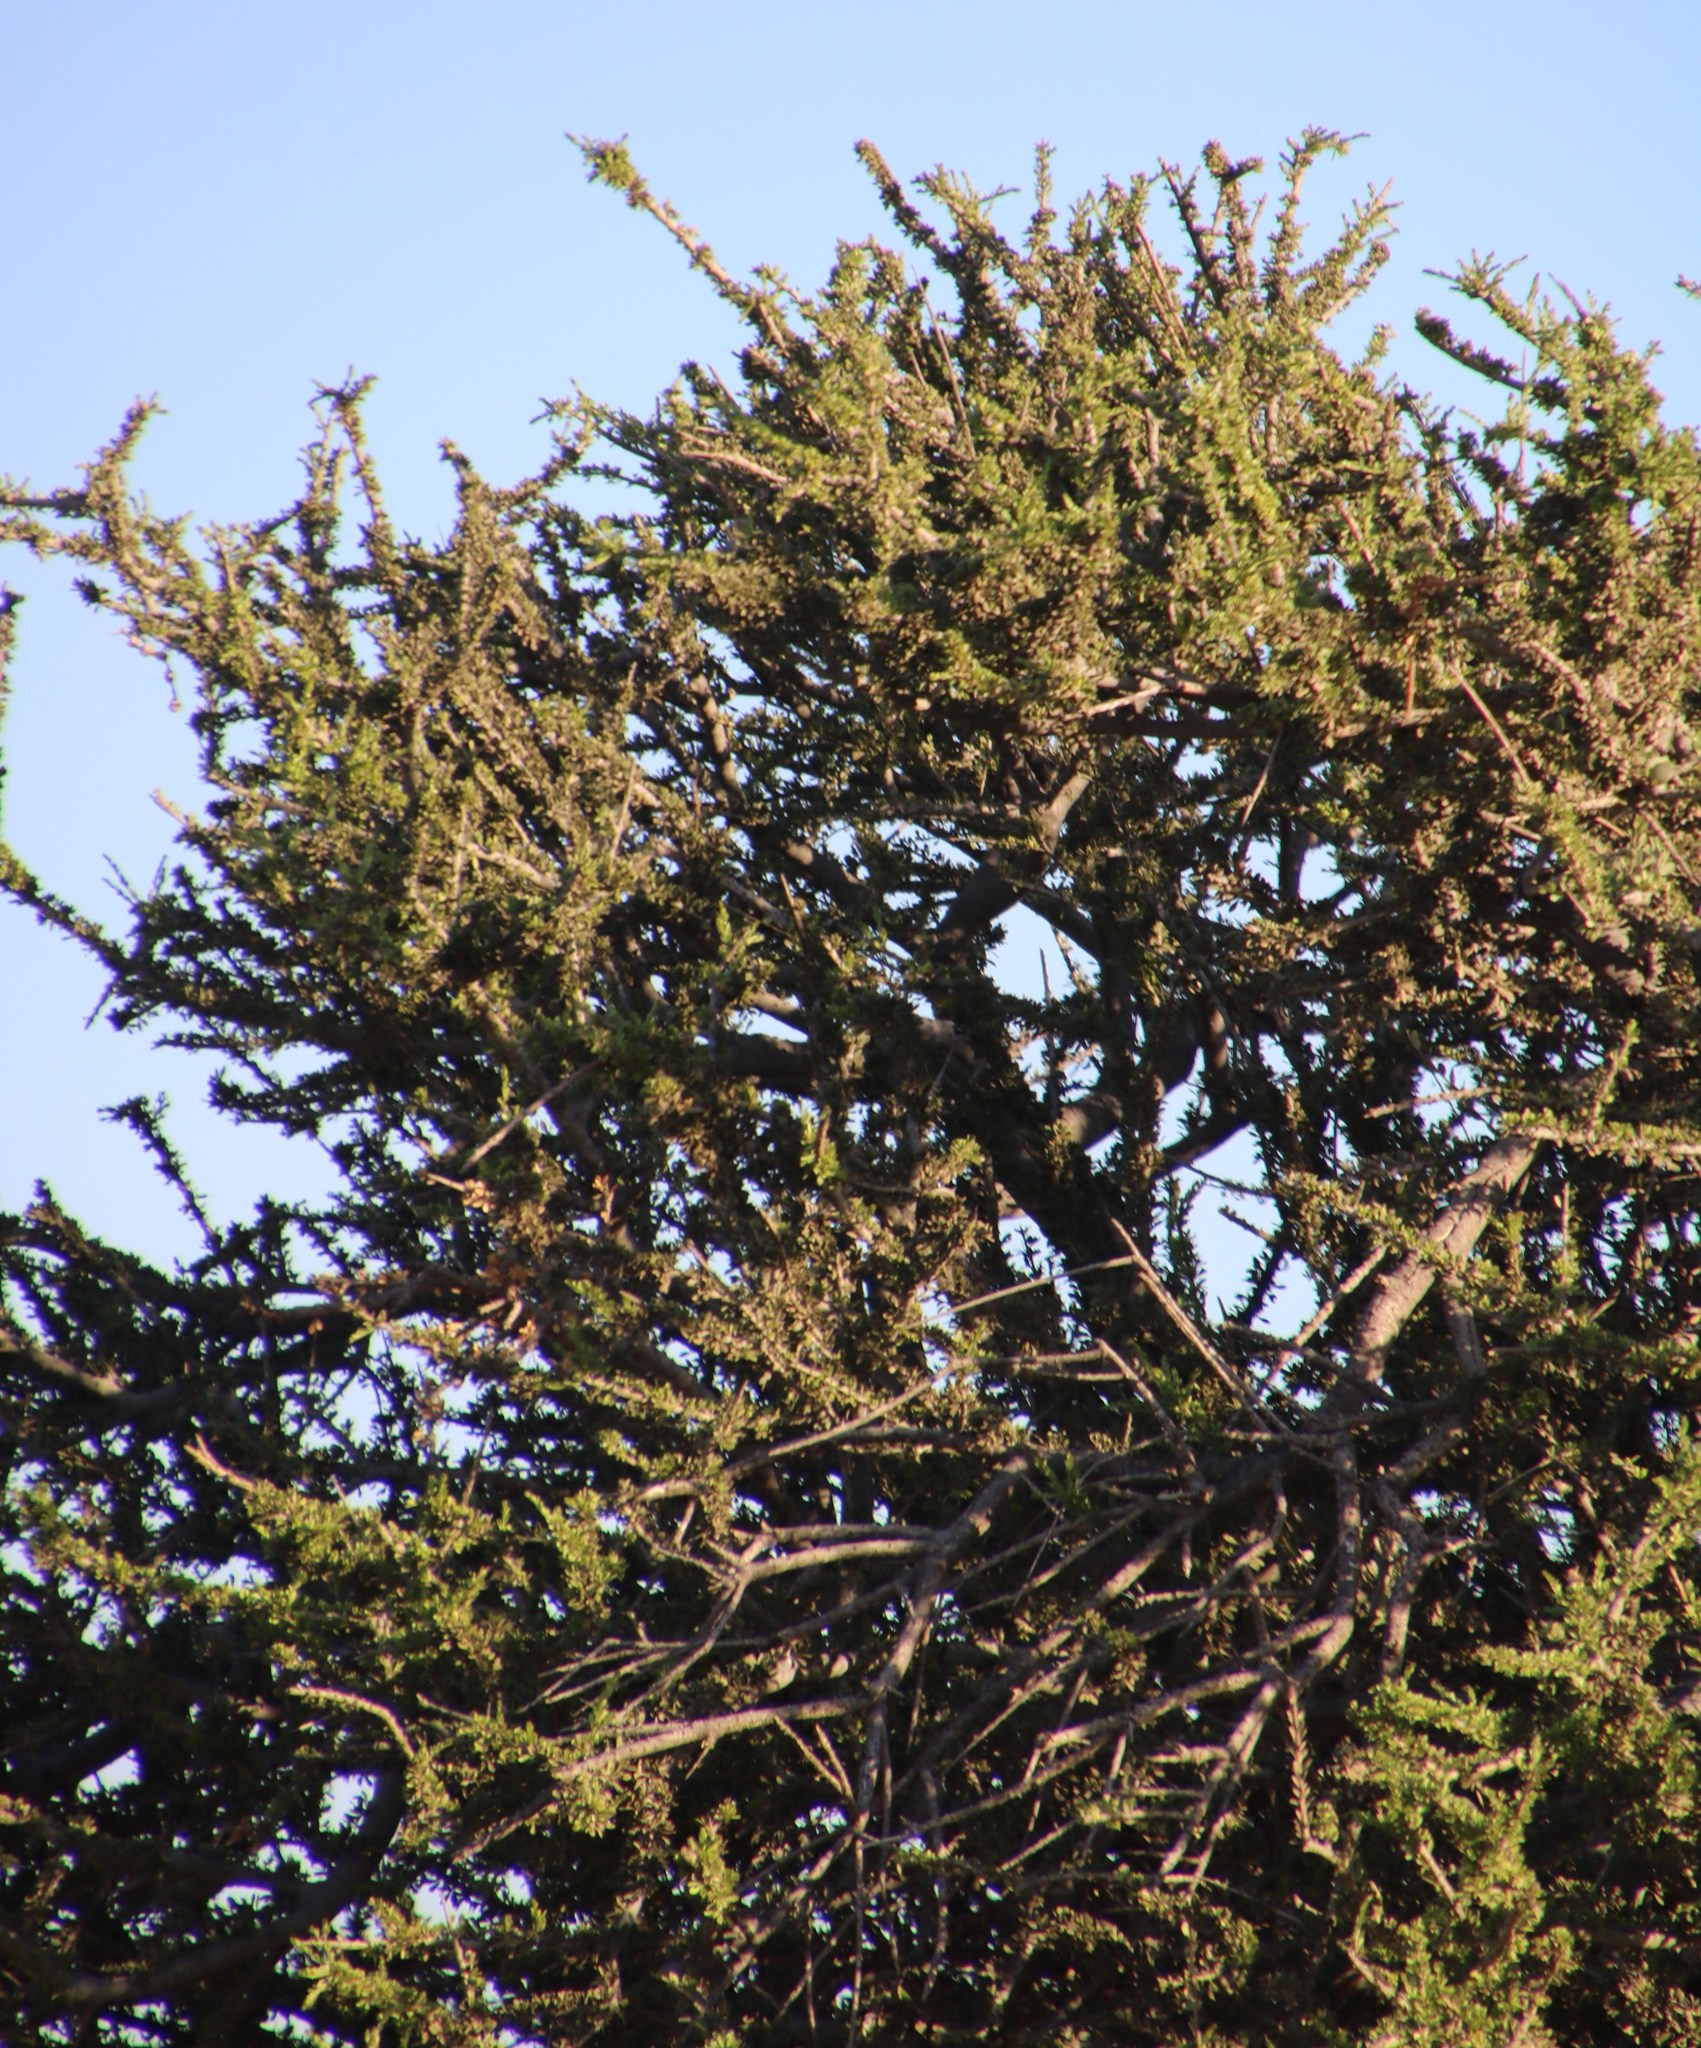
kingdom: Plantae
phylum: Tracheophyta
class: Magnoliopsida
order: Brassicales
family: Capparaceae
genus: Boscia
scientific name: Boscia albitrunca
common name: Caper bush
